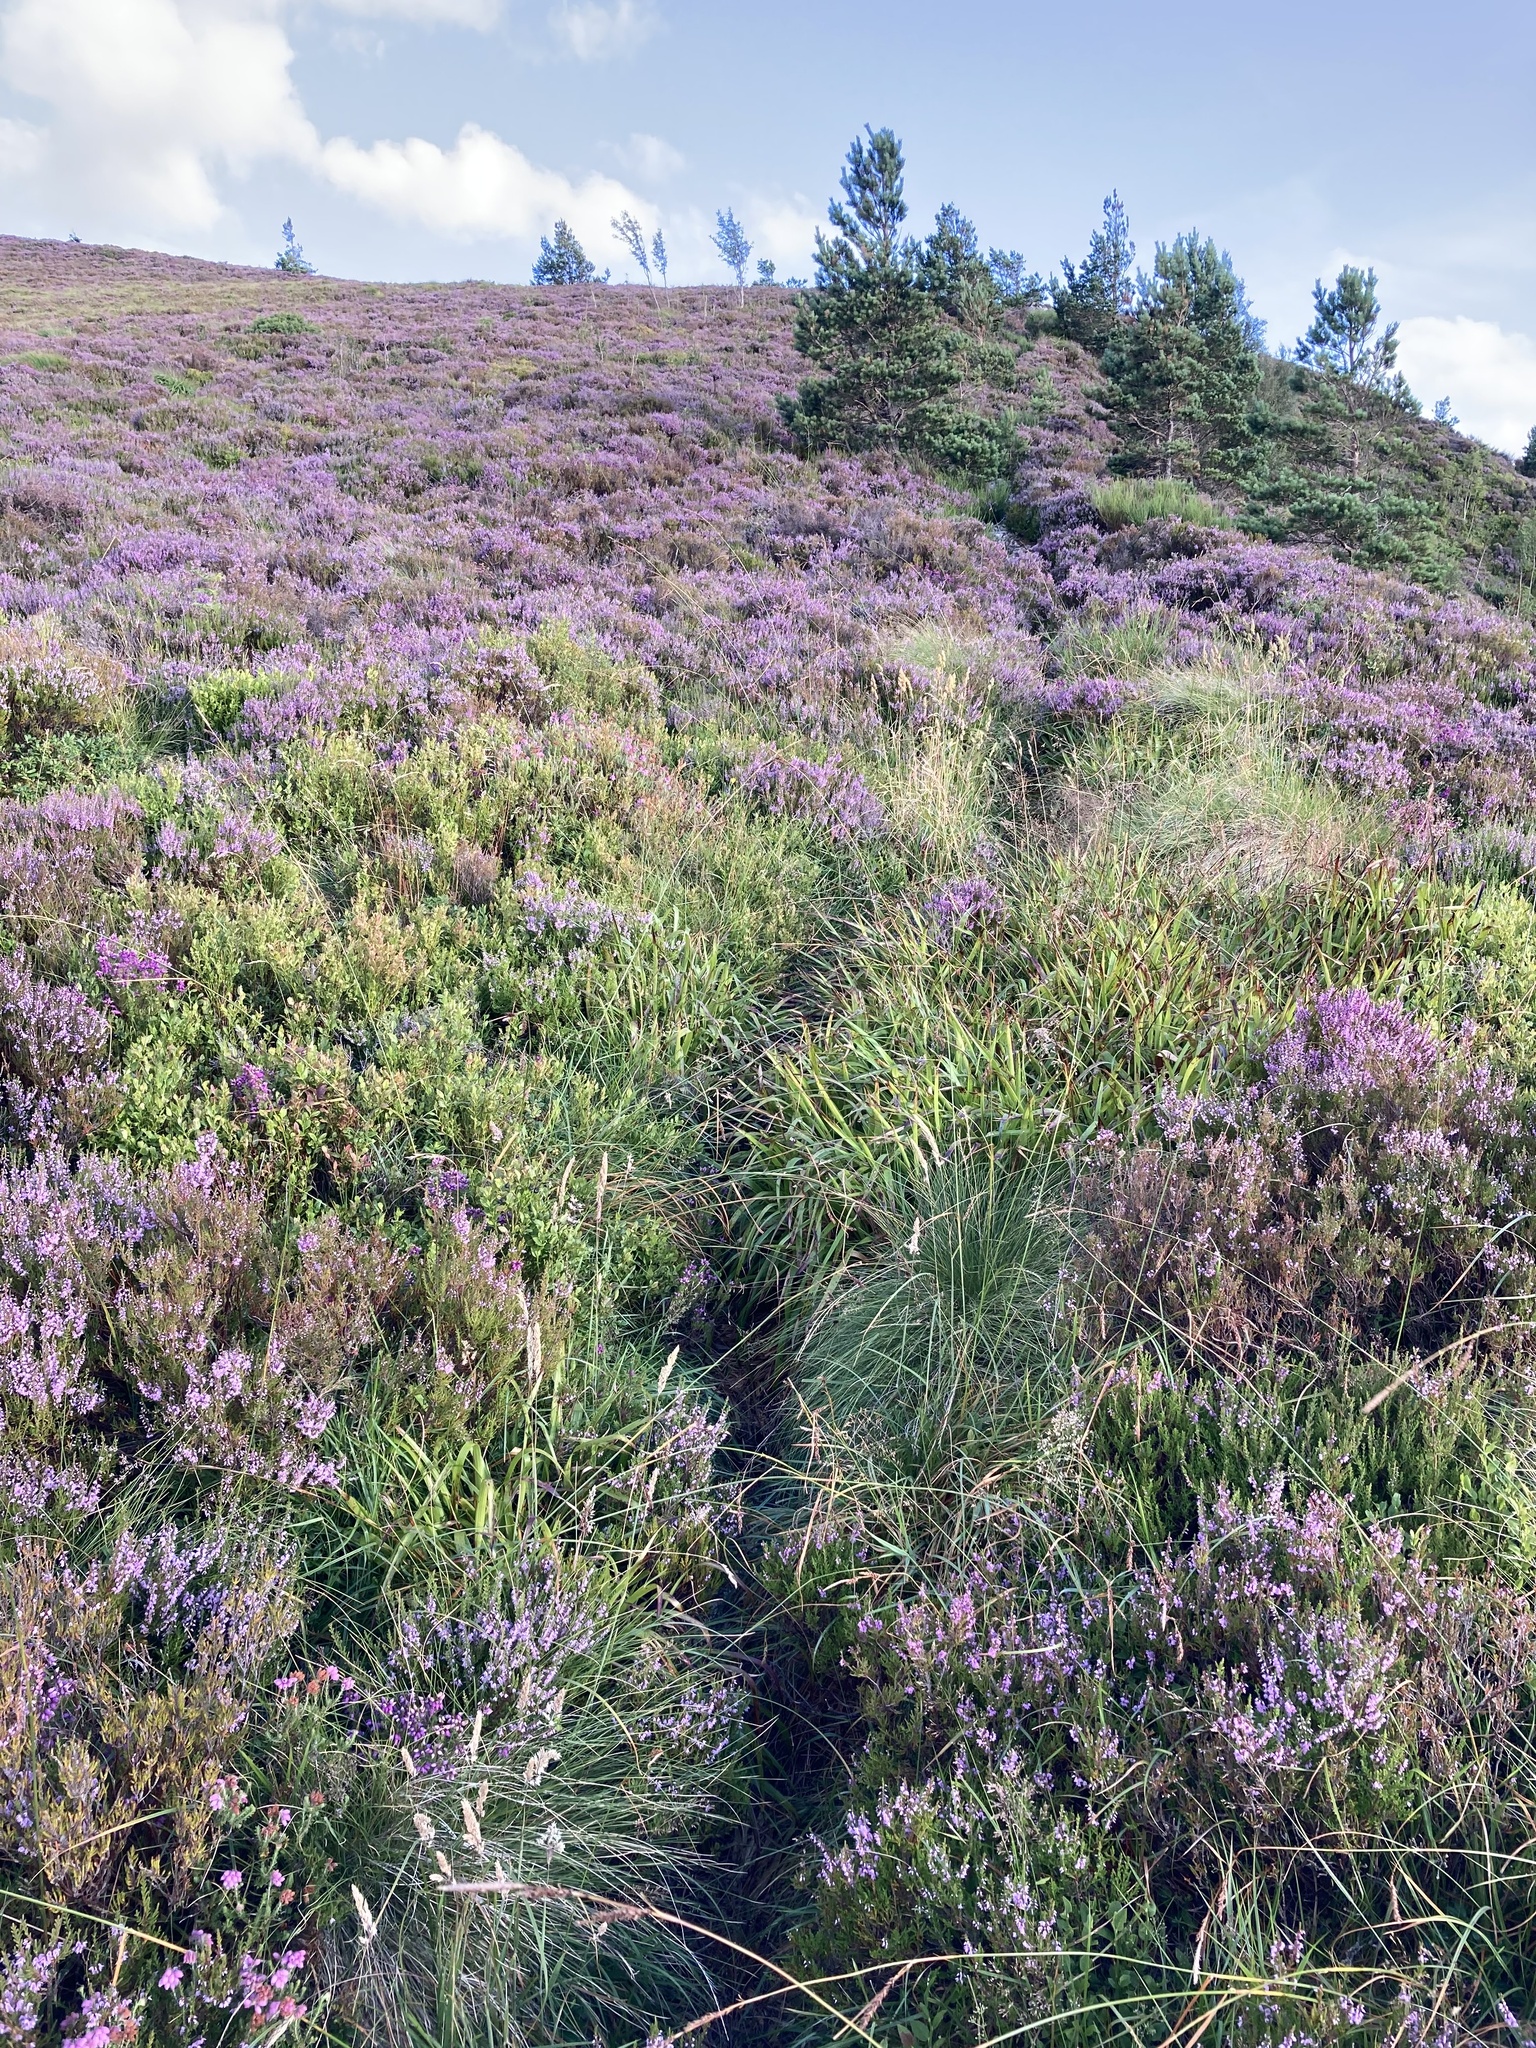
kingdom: Plantae
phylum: Tracheophyta
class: Magnoliopsida
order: Fabales
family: Fabaceae
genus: Cytisus
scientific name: Cytisus scoparius
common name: Scotch broom
